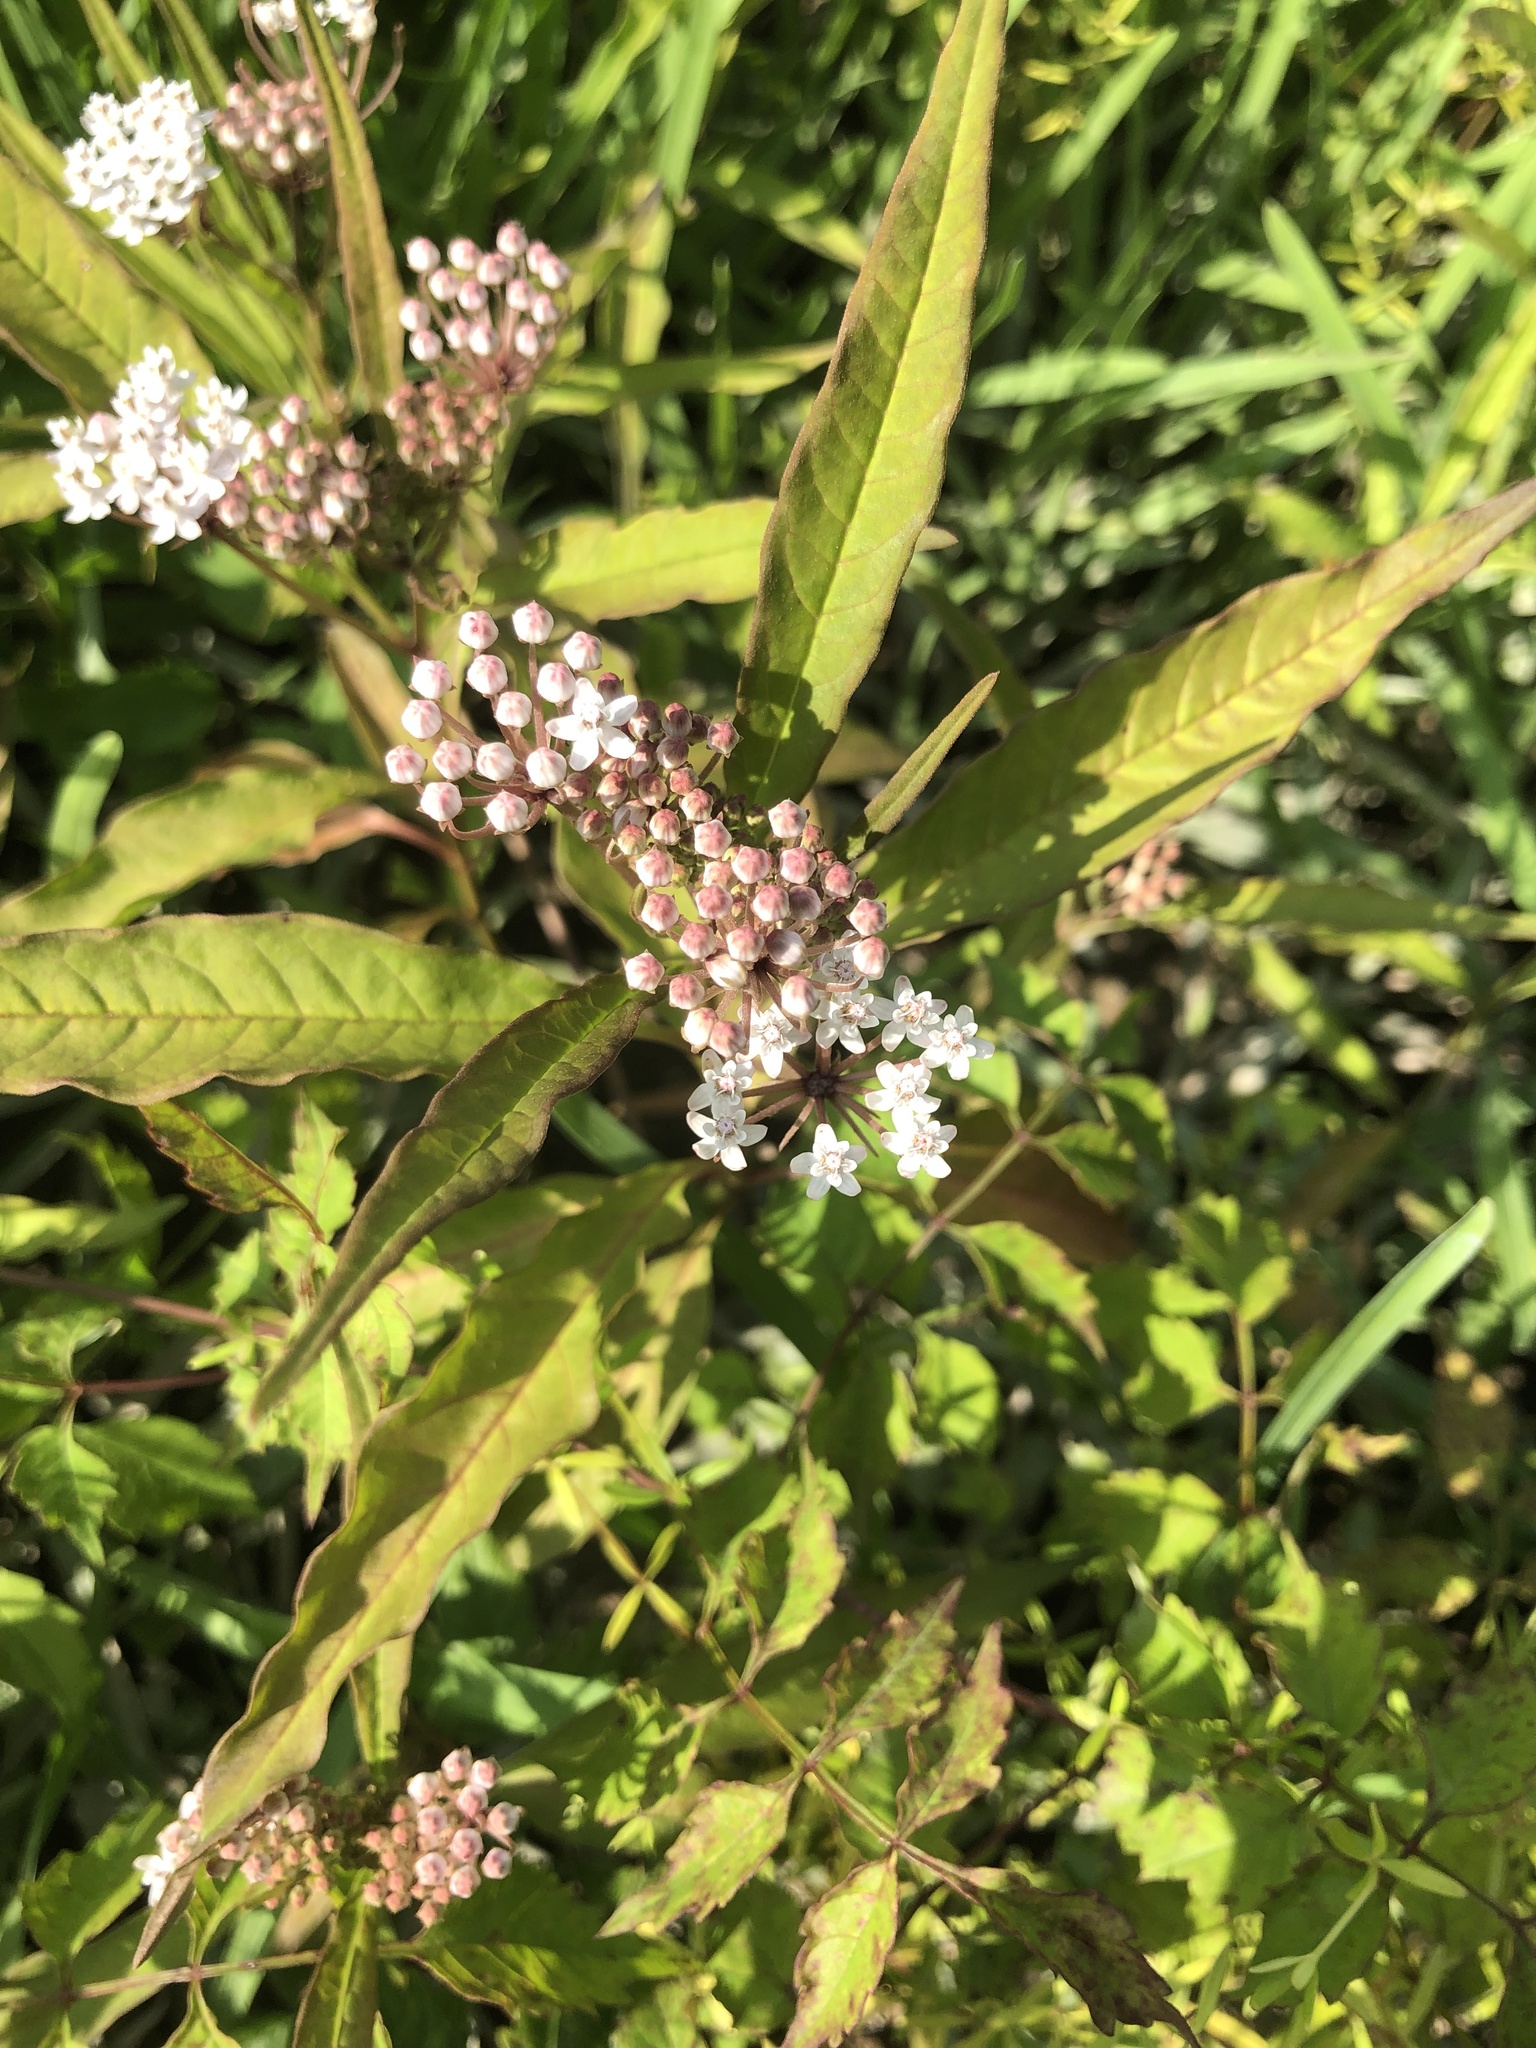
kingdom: Plantae
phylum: Tracheophyta
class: Magnoliopsida
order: Gentianales
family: Apocynaceae
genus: Asclepias
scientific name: Asclepias perennis
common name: Smooth-seed milkweed
